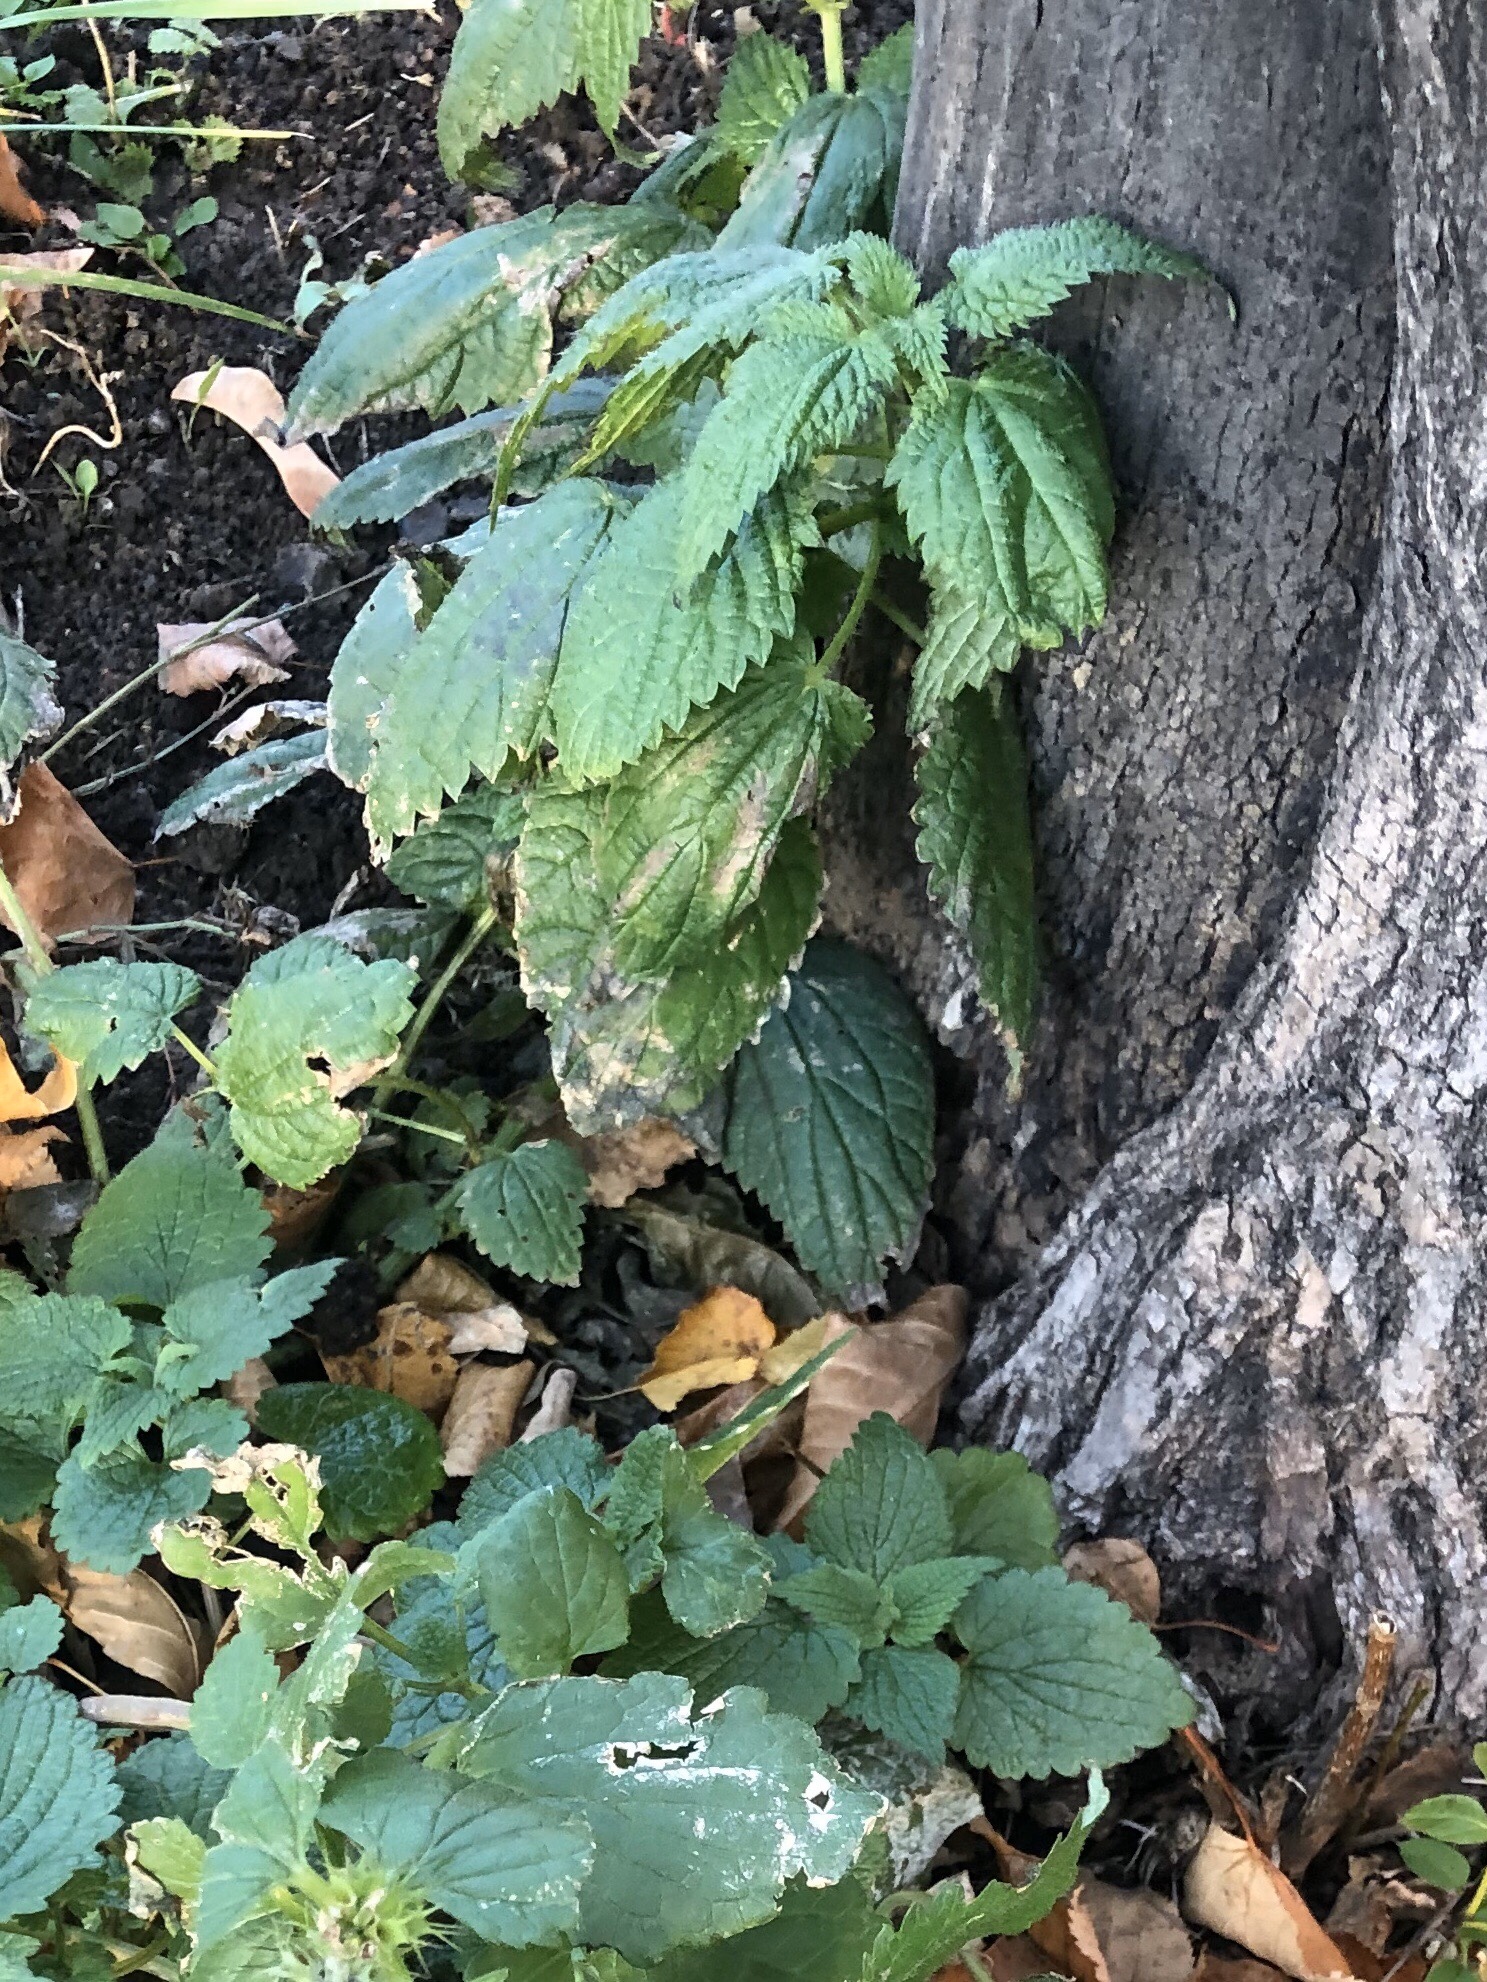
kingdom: Plantae
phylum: Tracheophyta
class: Magnoliopsida
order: Rosales
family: Urticaceae
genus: Urtica
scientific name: Urtica dioica
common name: Common nettle
